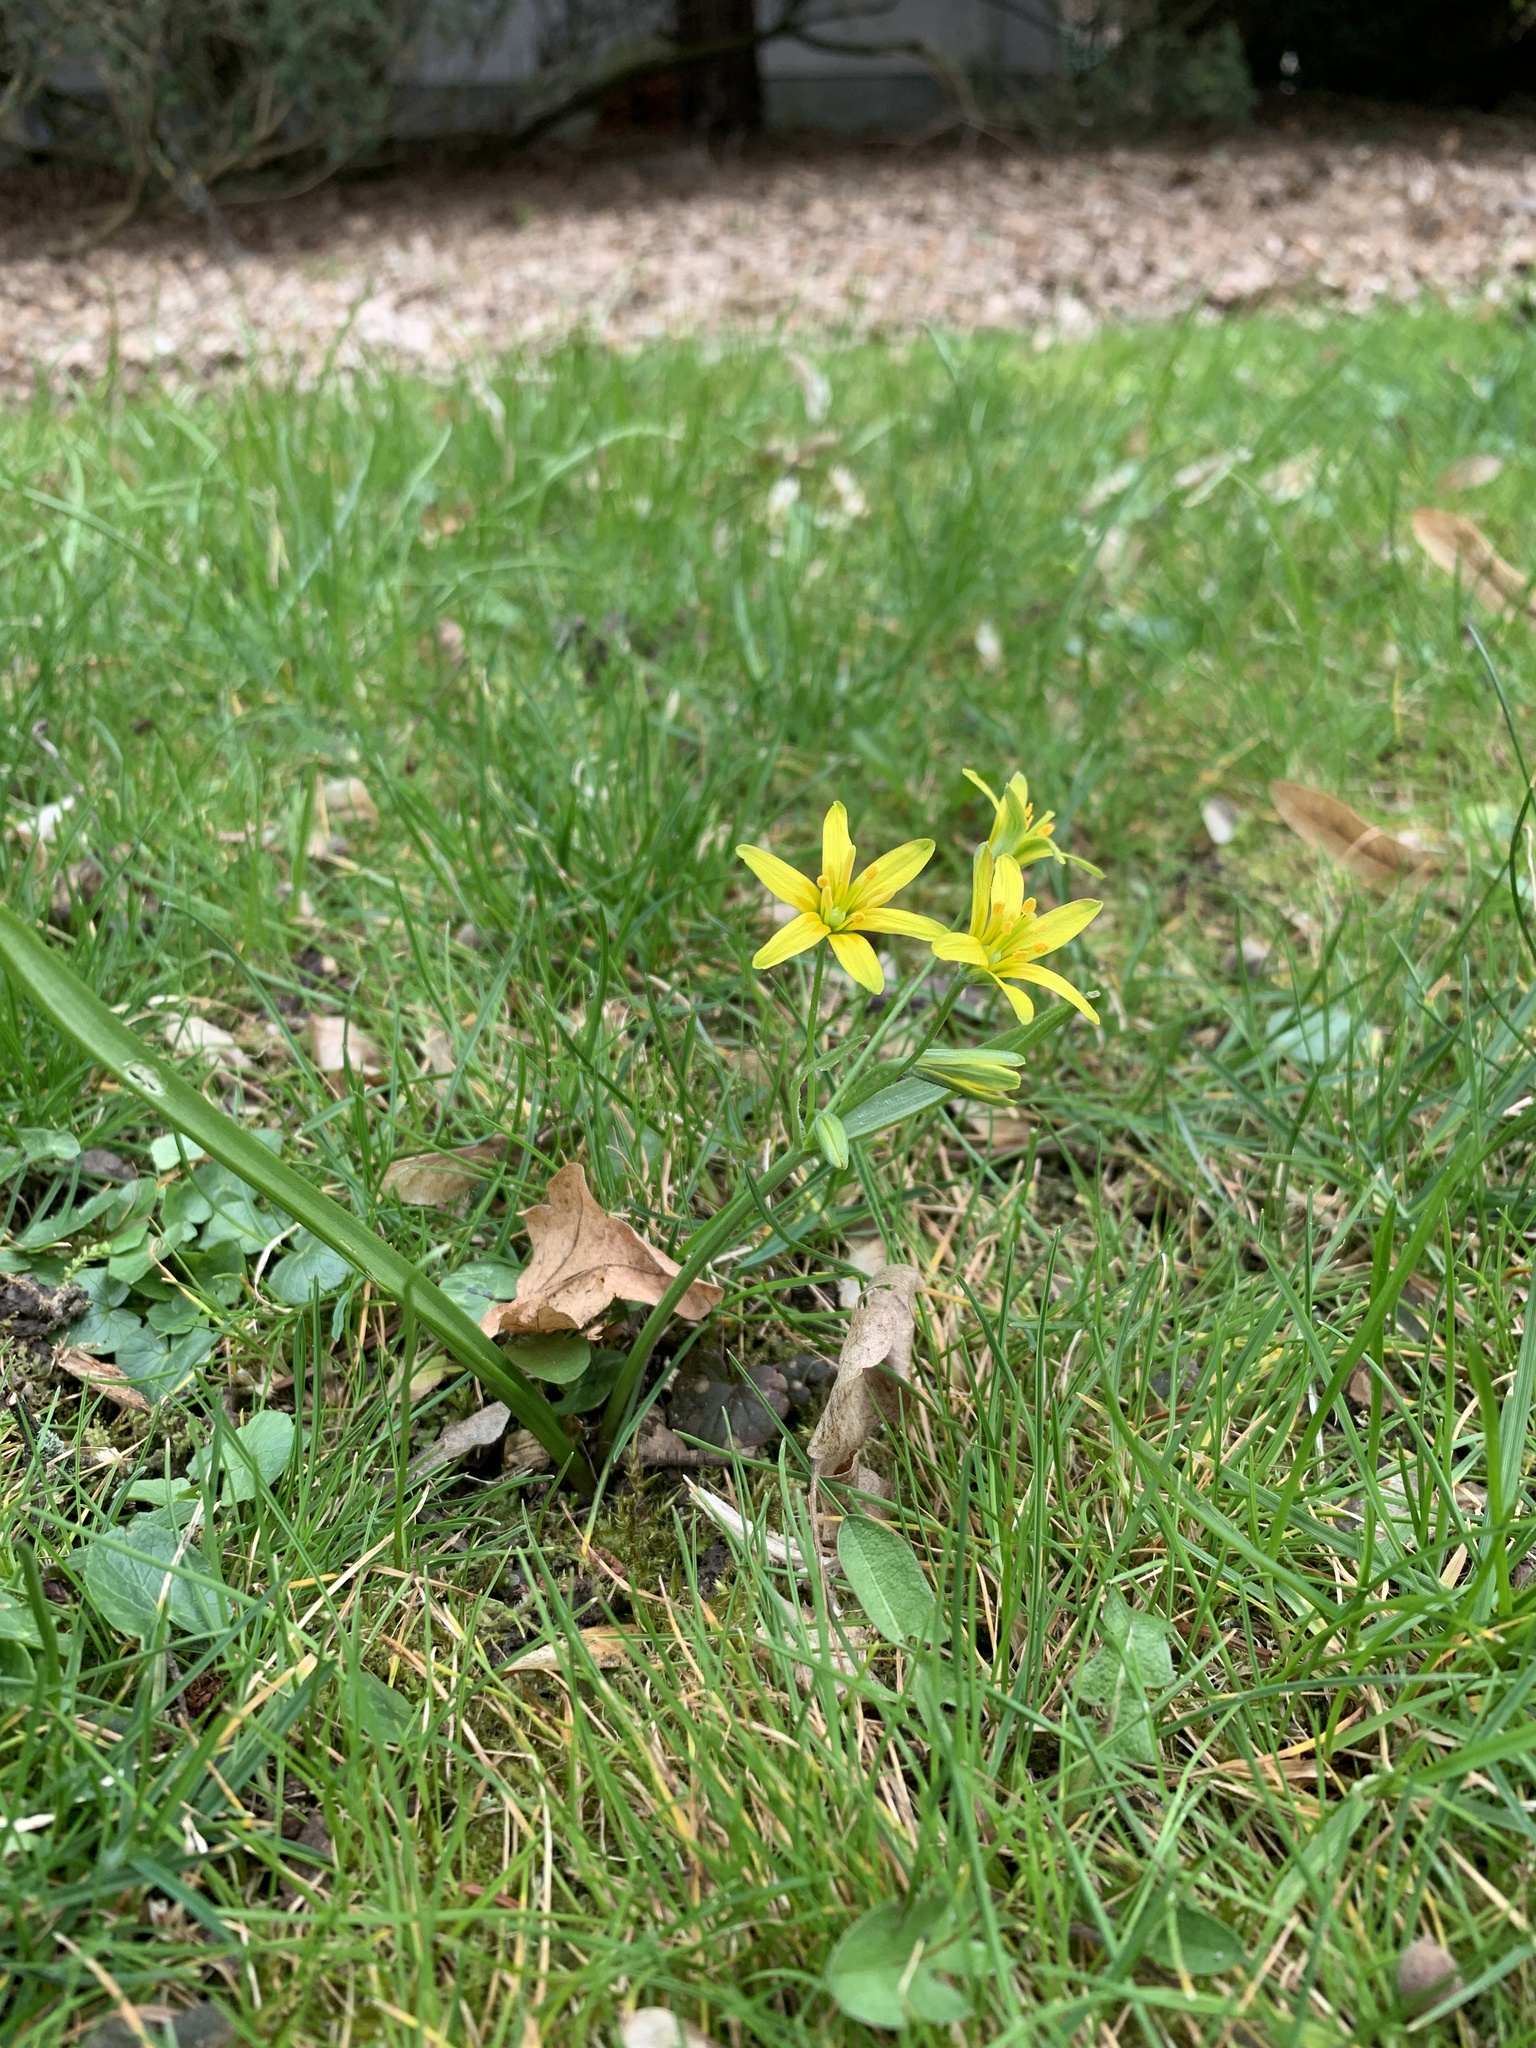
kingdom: Plantae
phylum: Tracheophyta
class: Liliopsida
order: Liliales
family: Liliaceae
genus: Gagea
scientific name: Gagea lutea
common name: Yellow star-of-bethlehem
